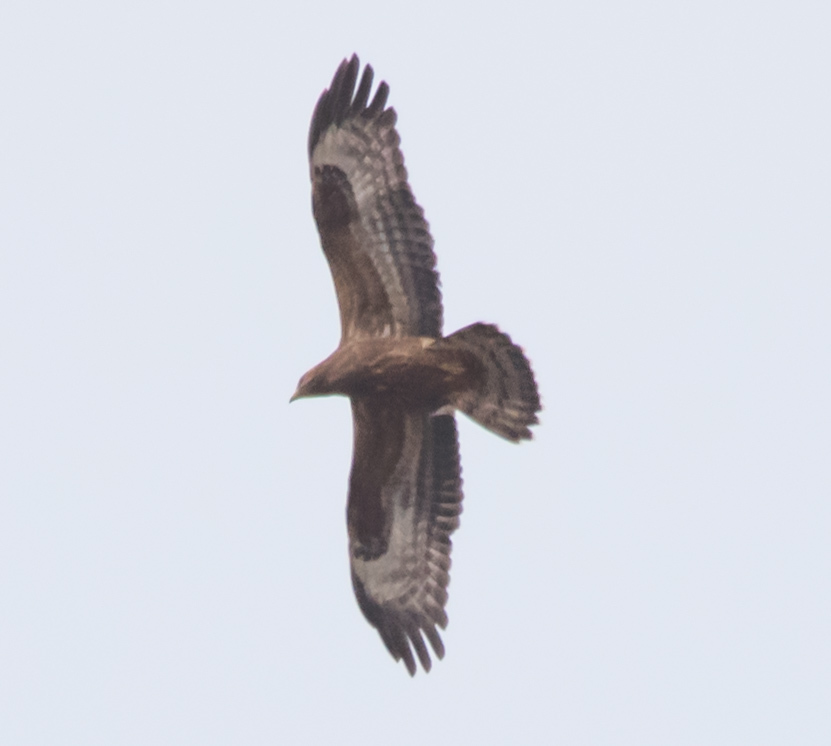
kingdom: Animalia
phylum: Chordata
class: Aves
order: Accipitriformes
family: Accipitridae
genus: Pernis
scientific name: Pernis apivorus
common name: European honey buzzard
